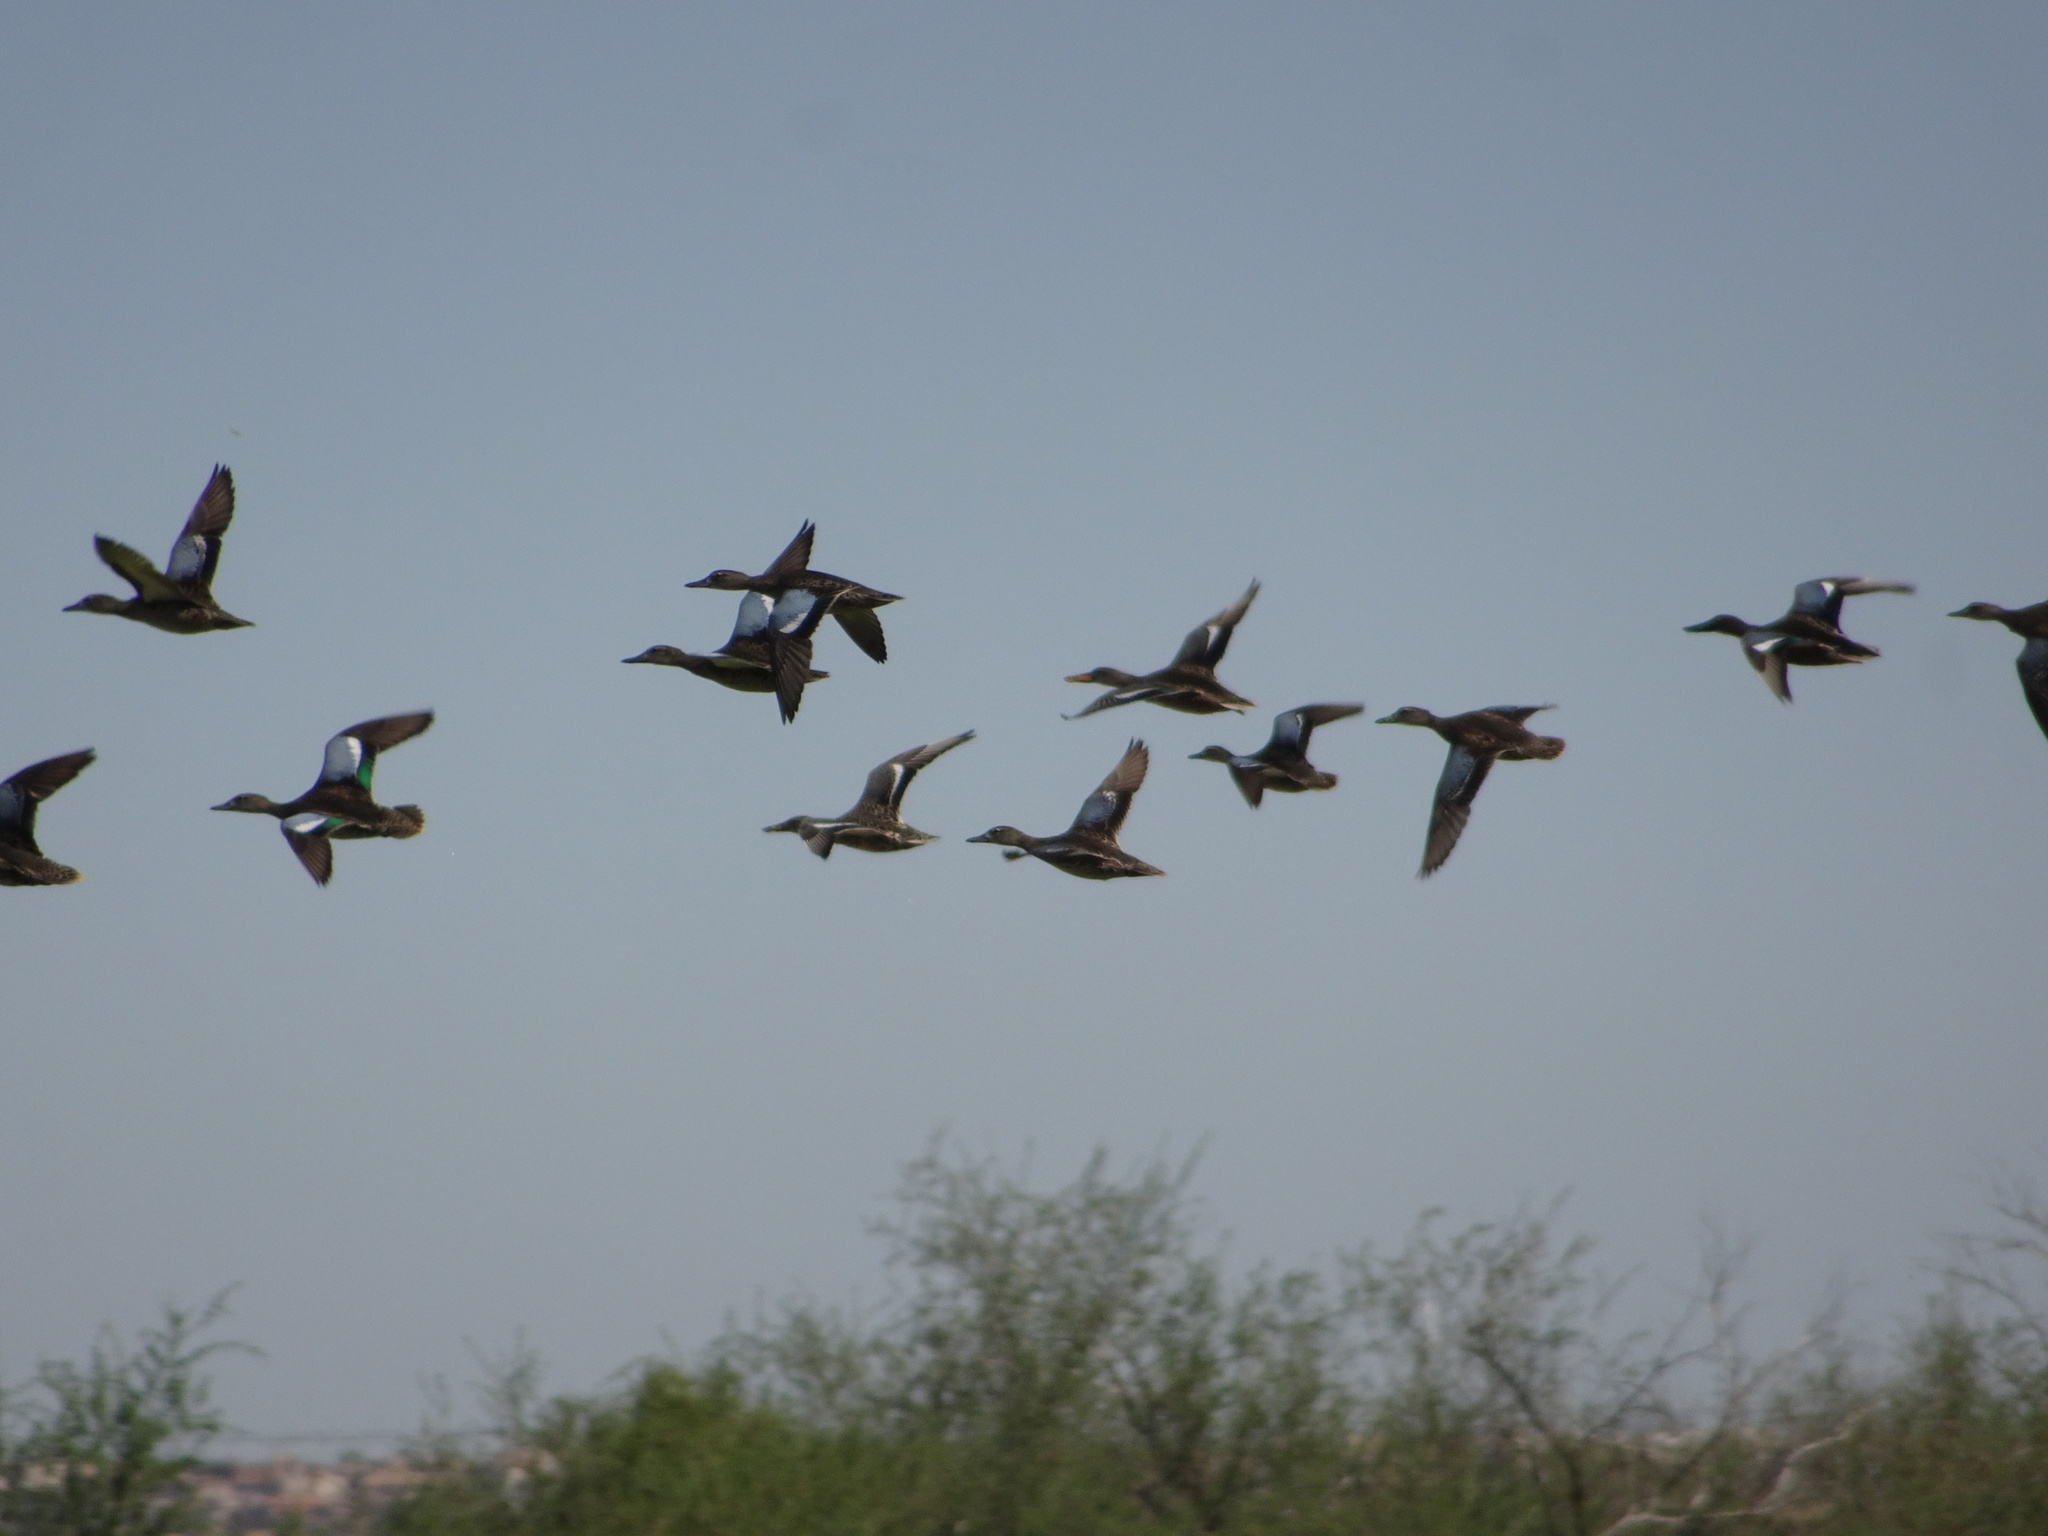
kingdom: Animalia
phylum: Chordata
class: Aves
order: Anseriformes
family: Anatidae
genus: Spatula
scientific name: Spatula discors
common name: Blue-winged teal
